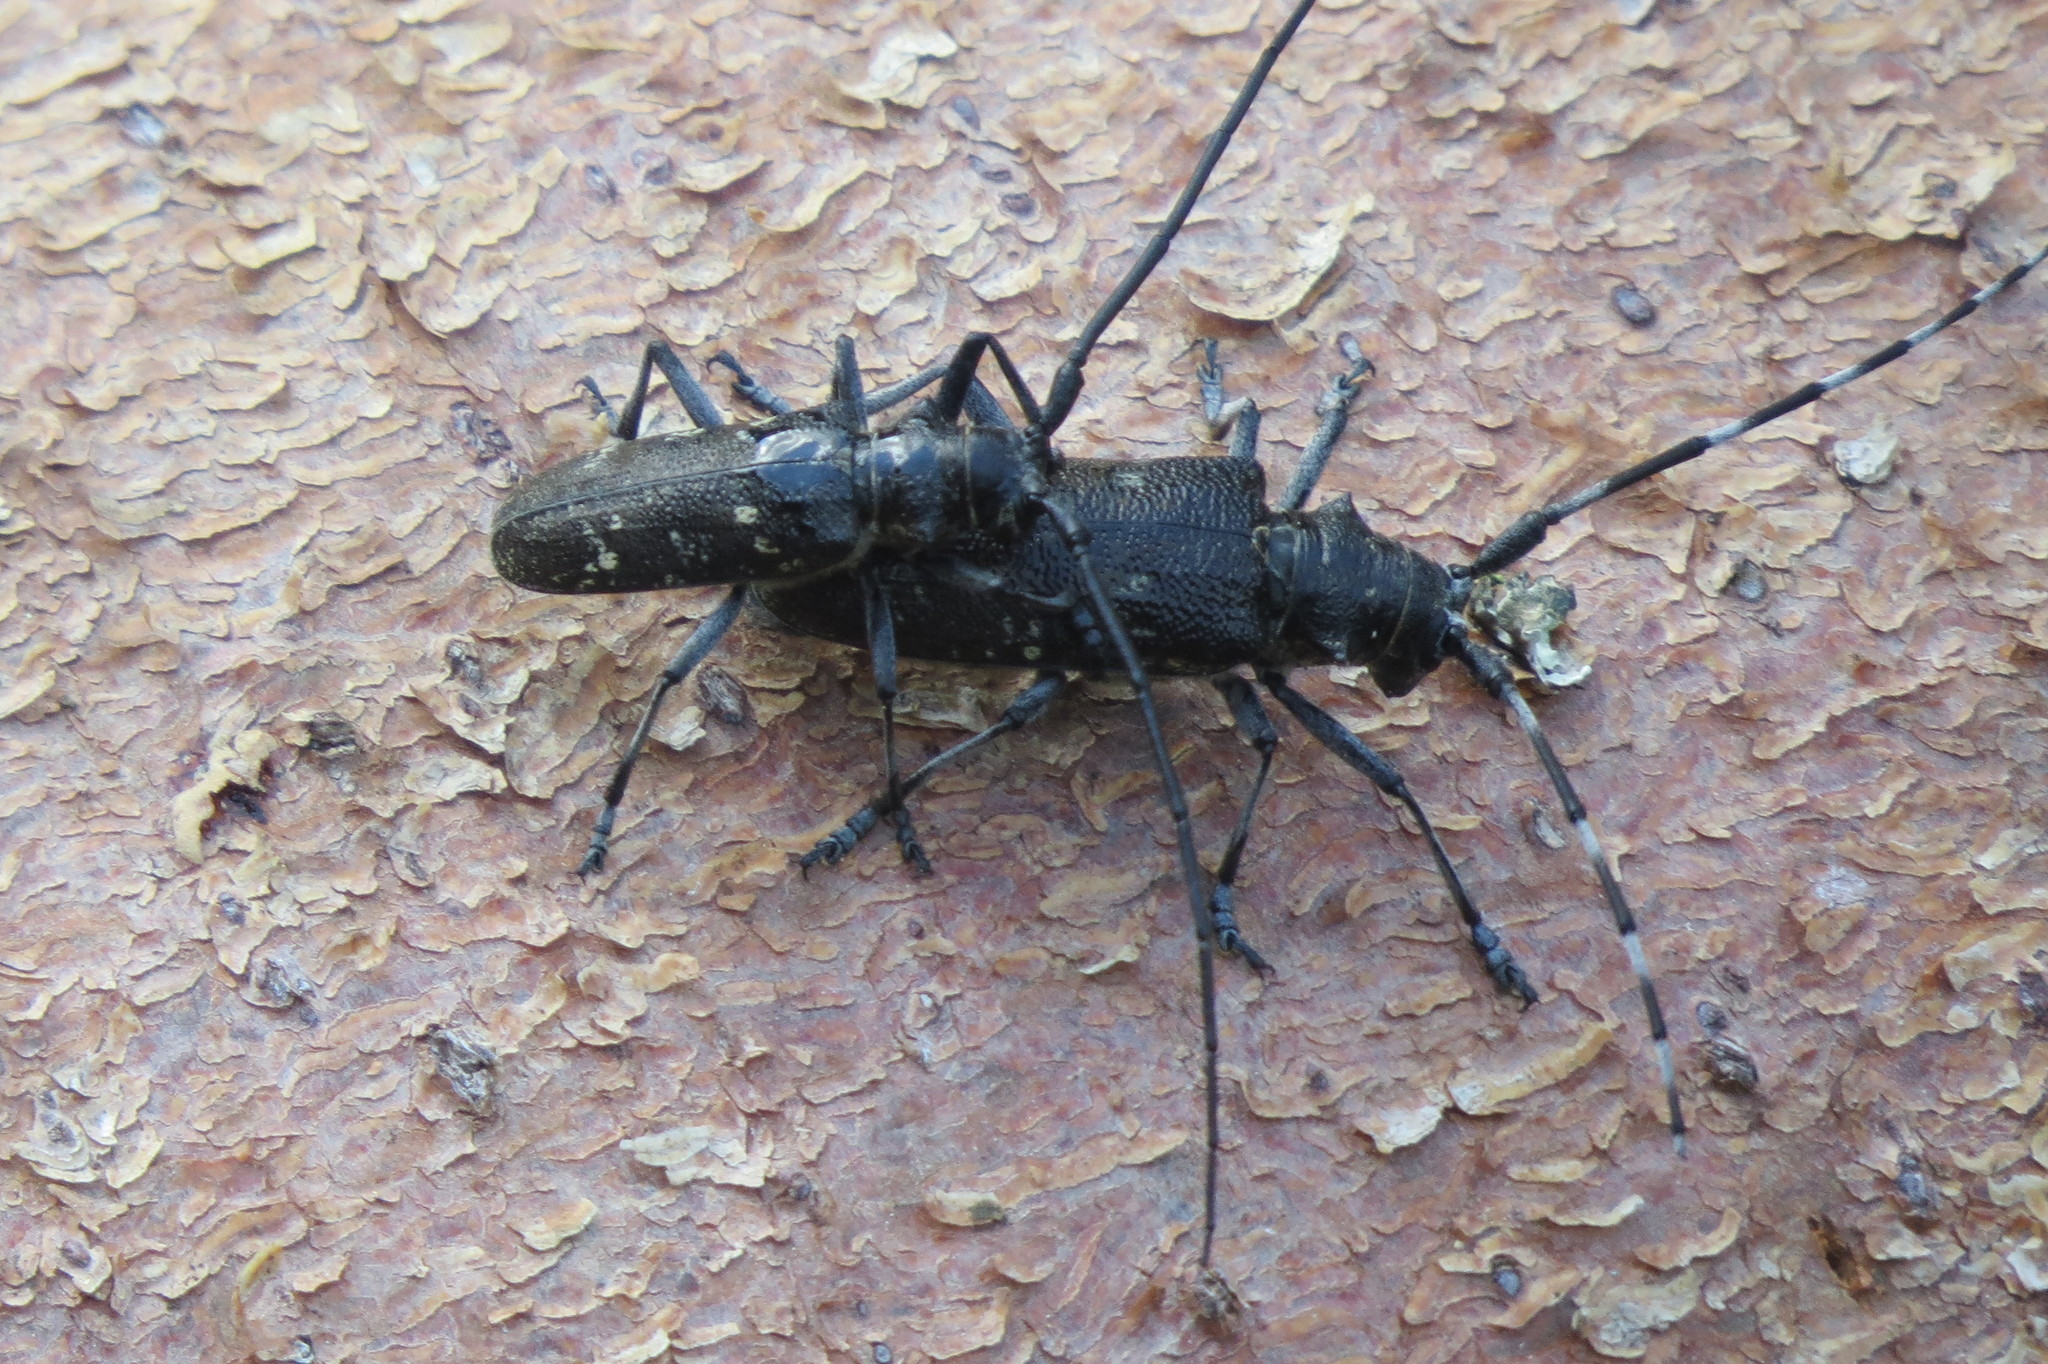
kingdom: Animalia
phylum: Arthropoda
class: Insecta
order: Coleoptera
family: Cerambycidae
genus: Monochamus
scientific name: Monochamus sutor
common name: Pine sawyer
